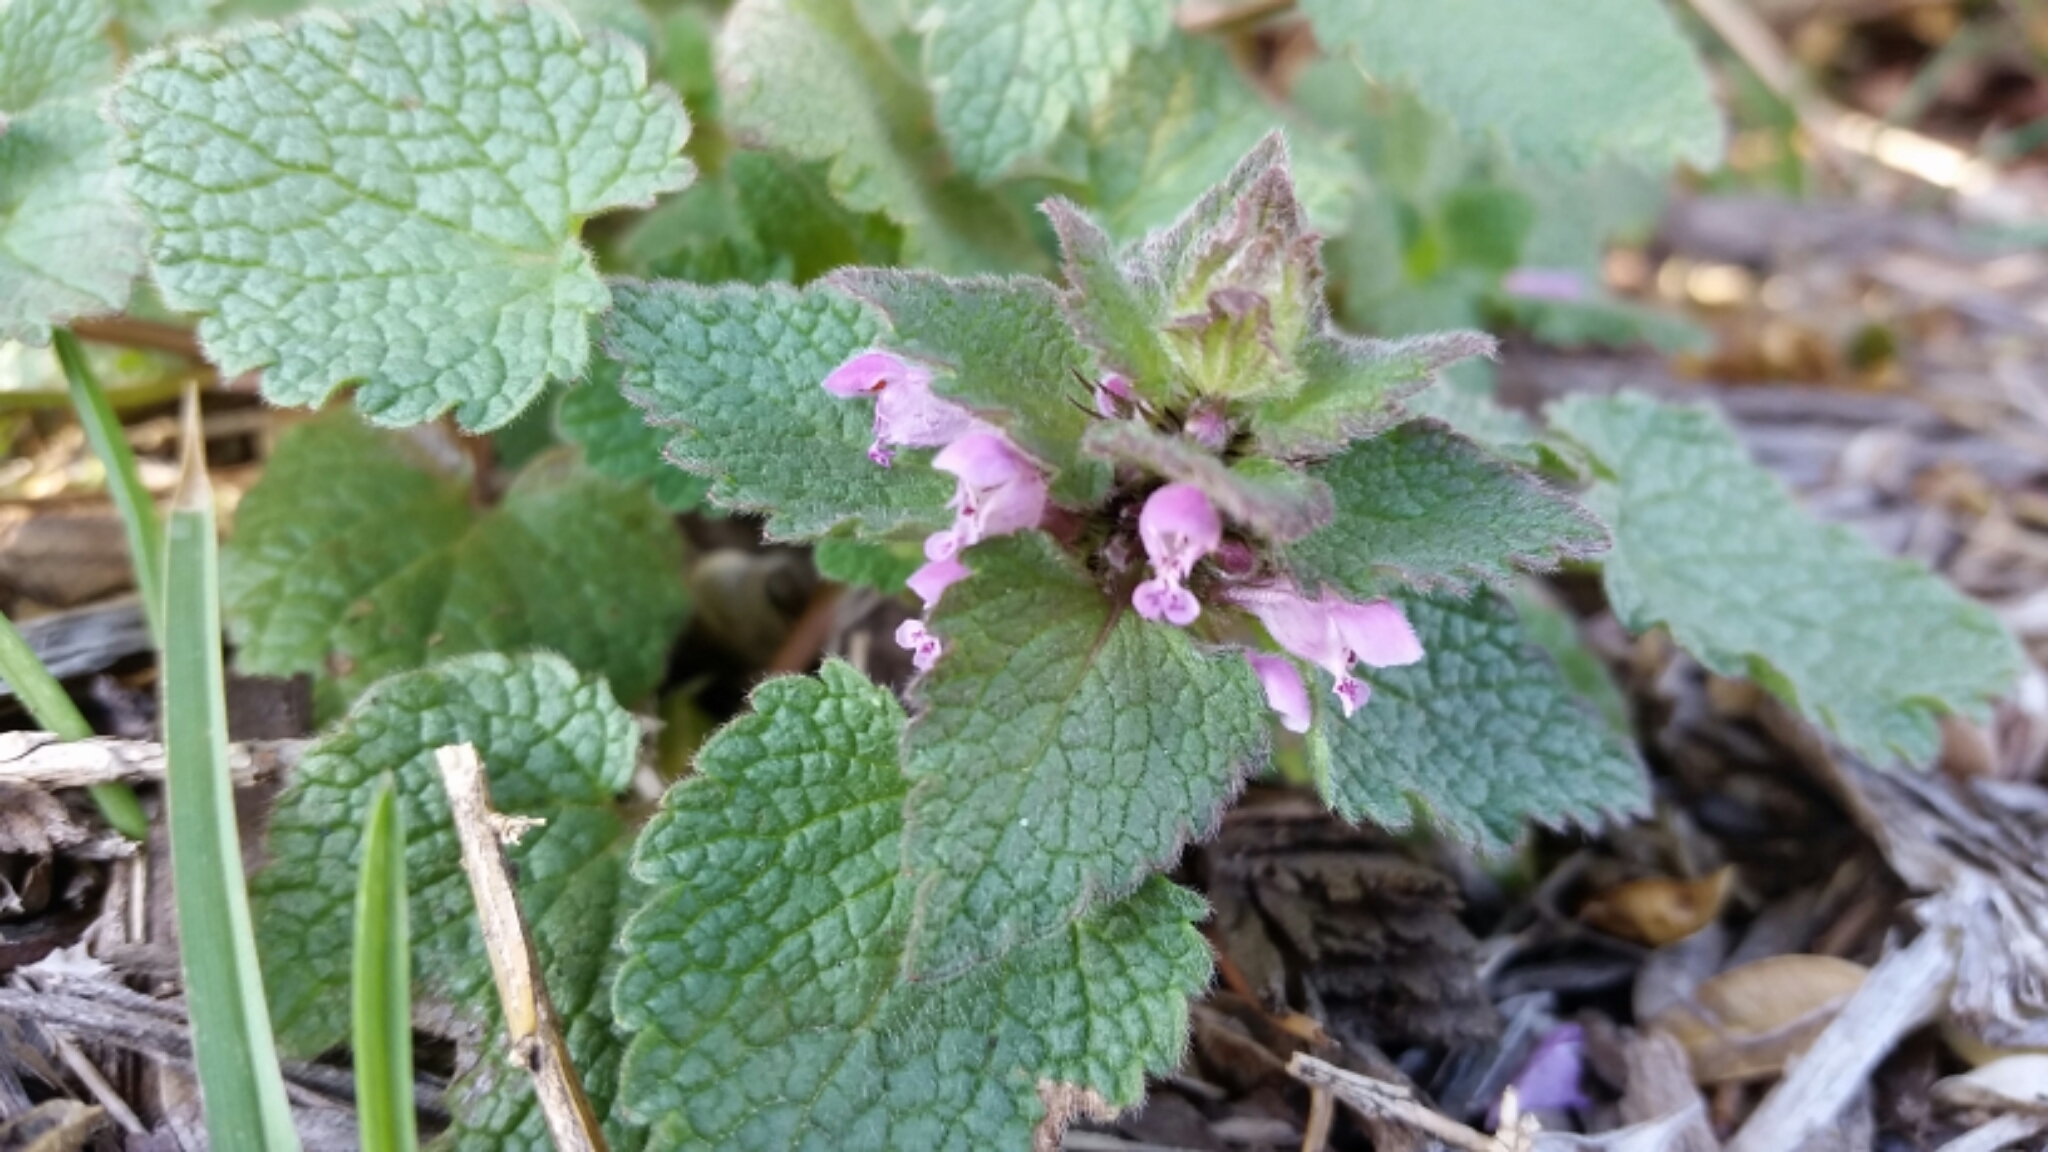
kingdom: Plantae
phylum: Tracheophyta
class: Magnoliopsida
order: Lamiales
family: Lamiaceae
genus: Lamium
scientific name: Lamium purpureum
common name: Red dead-nettle
